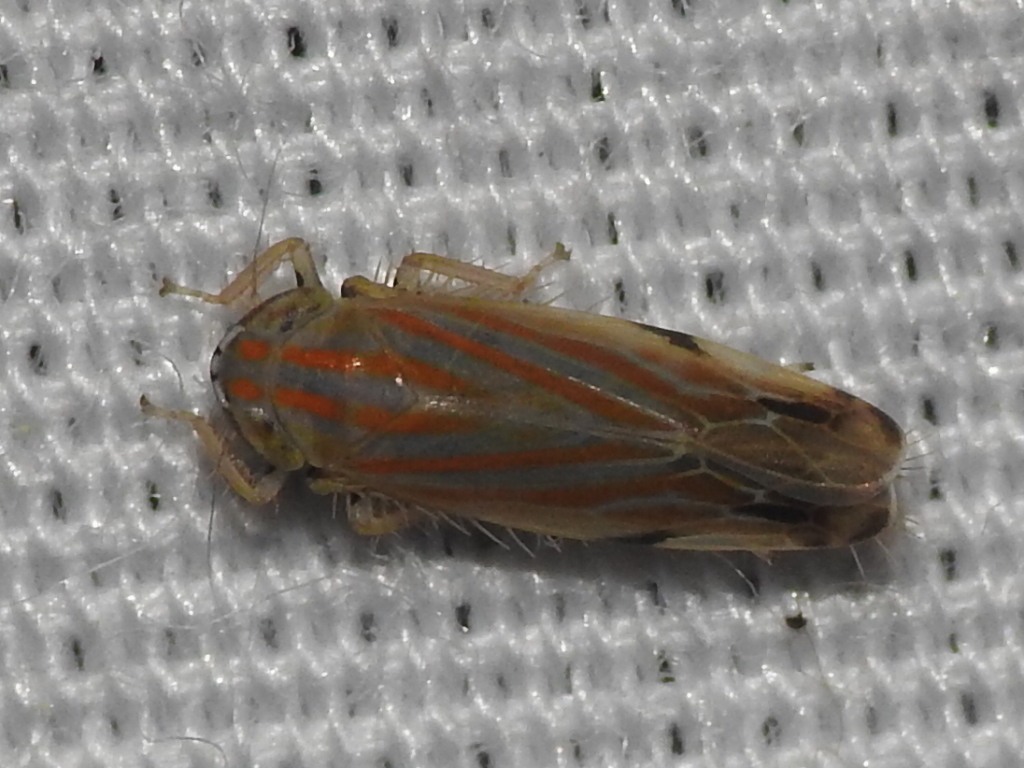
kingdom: Animalia
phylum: Arthropoda
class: Insecta
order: Hemiptera
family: Cicadellidae
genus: Deltanus
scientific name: Deltanus texanus
